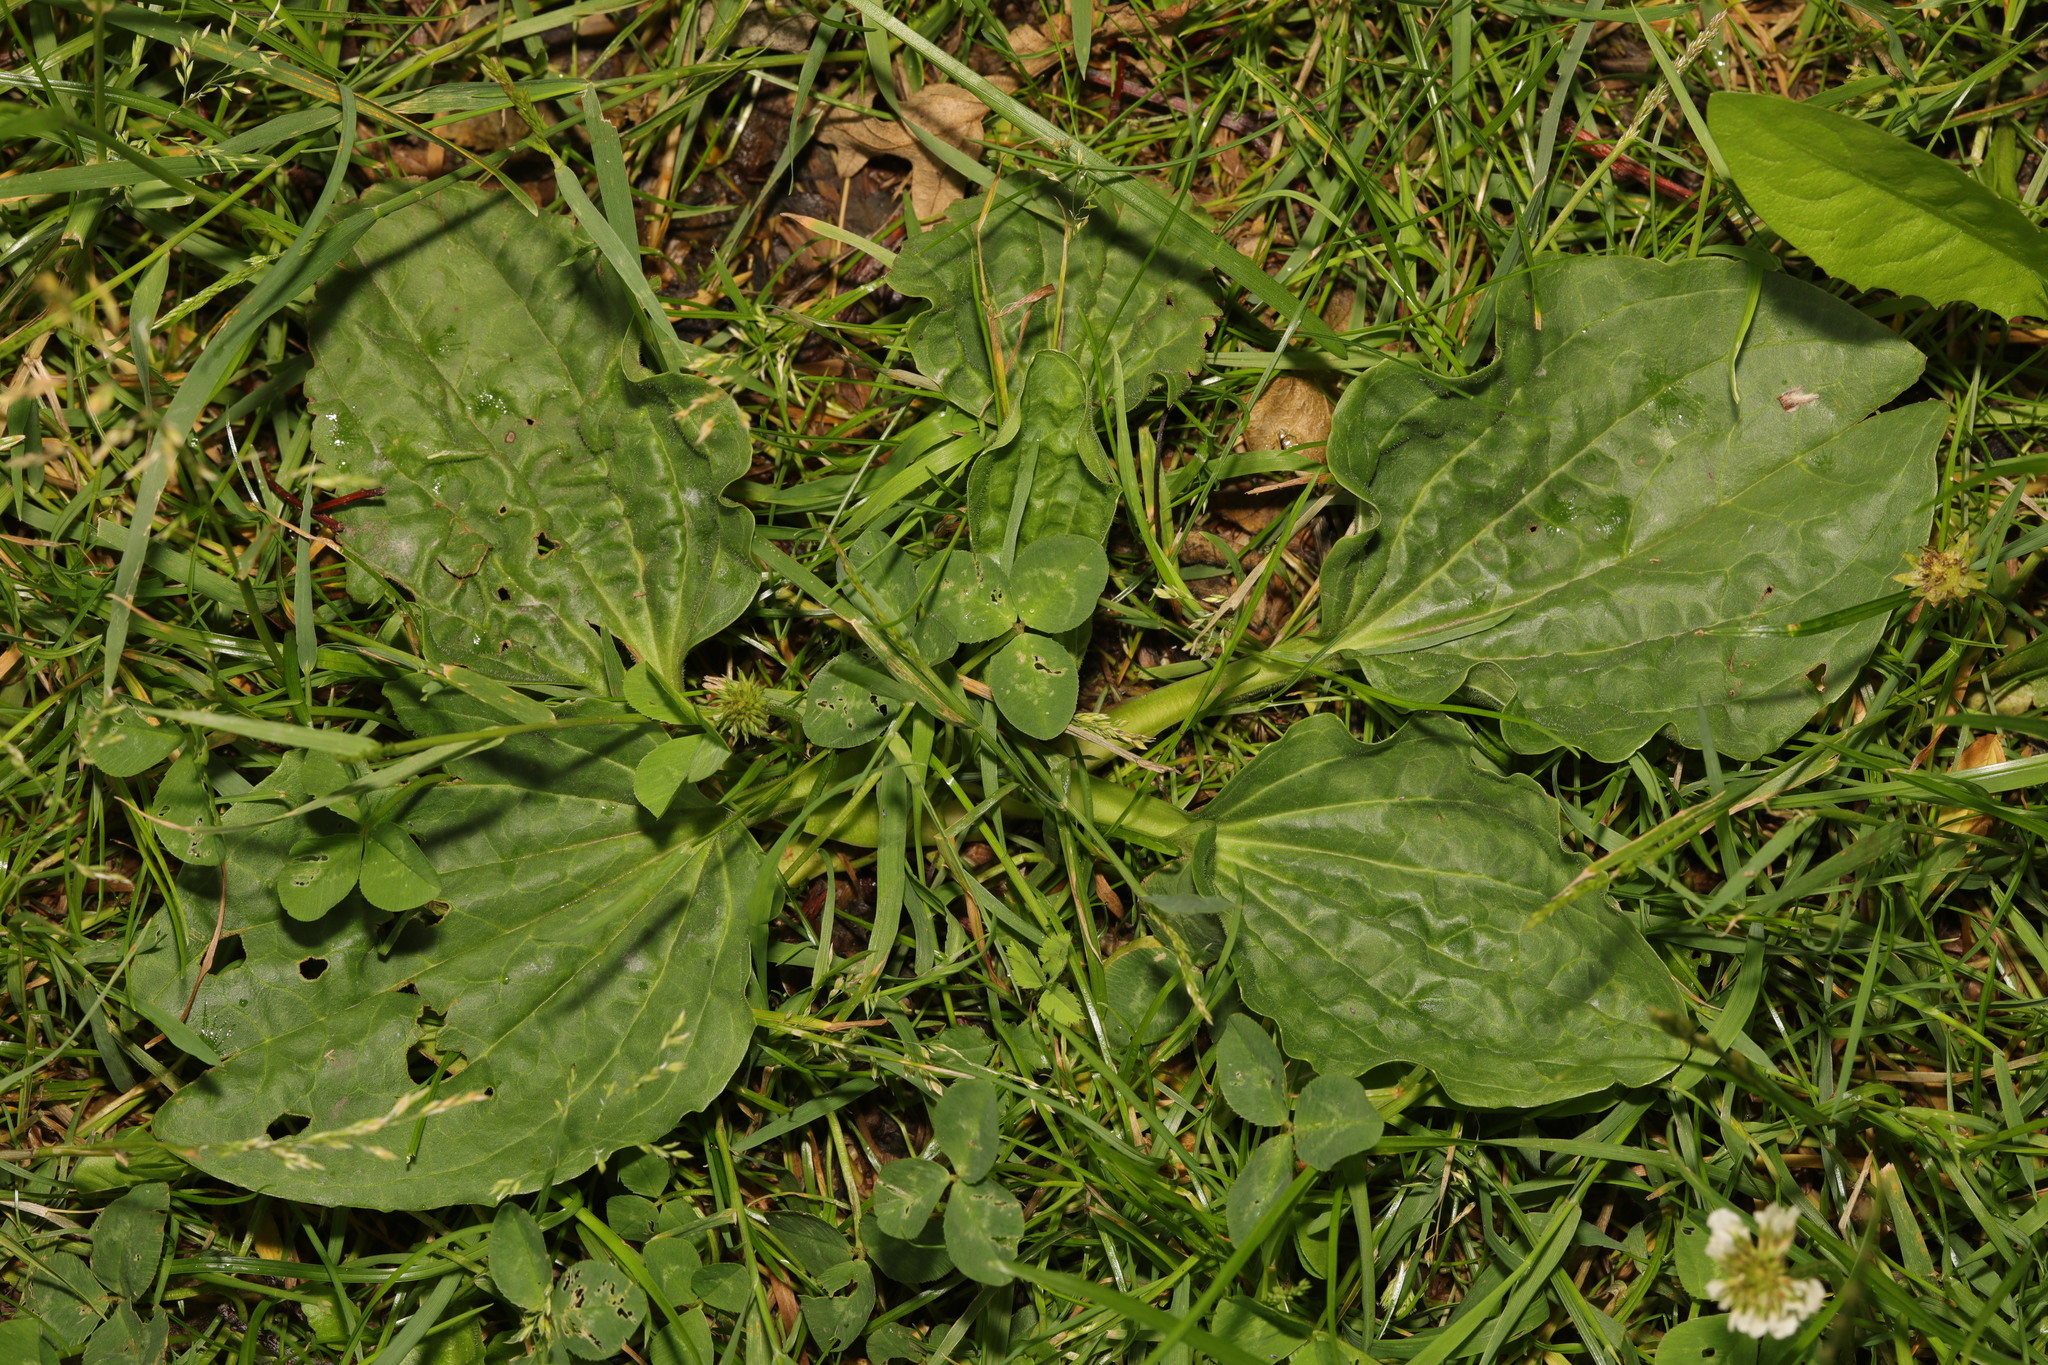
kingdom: Plantae
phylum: Tracheophyta
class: Magnoliopsida
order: Lamiales
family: Plantaginaceae
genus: Plantago
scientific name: Plantago major
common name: Common plantain
